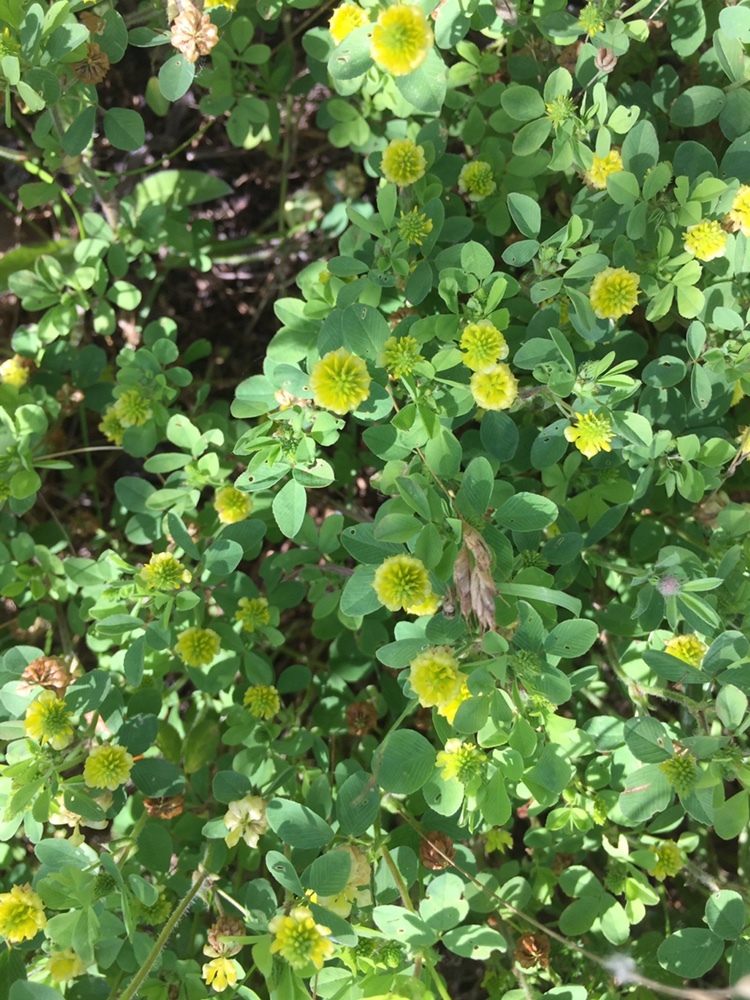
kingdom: Plantae
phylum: Tracheophyta
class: Magnoliopsida
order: Fabales
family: Fabaceae
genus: Trifolium
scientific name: Trifolium campestre
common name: Field clover
